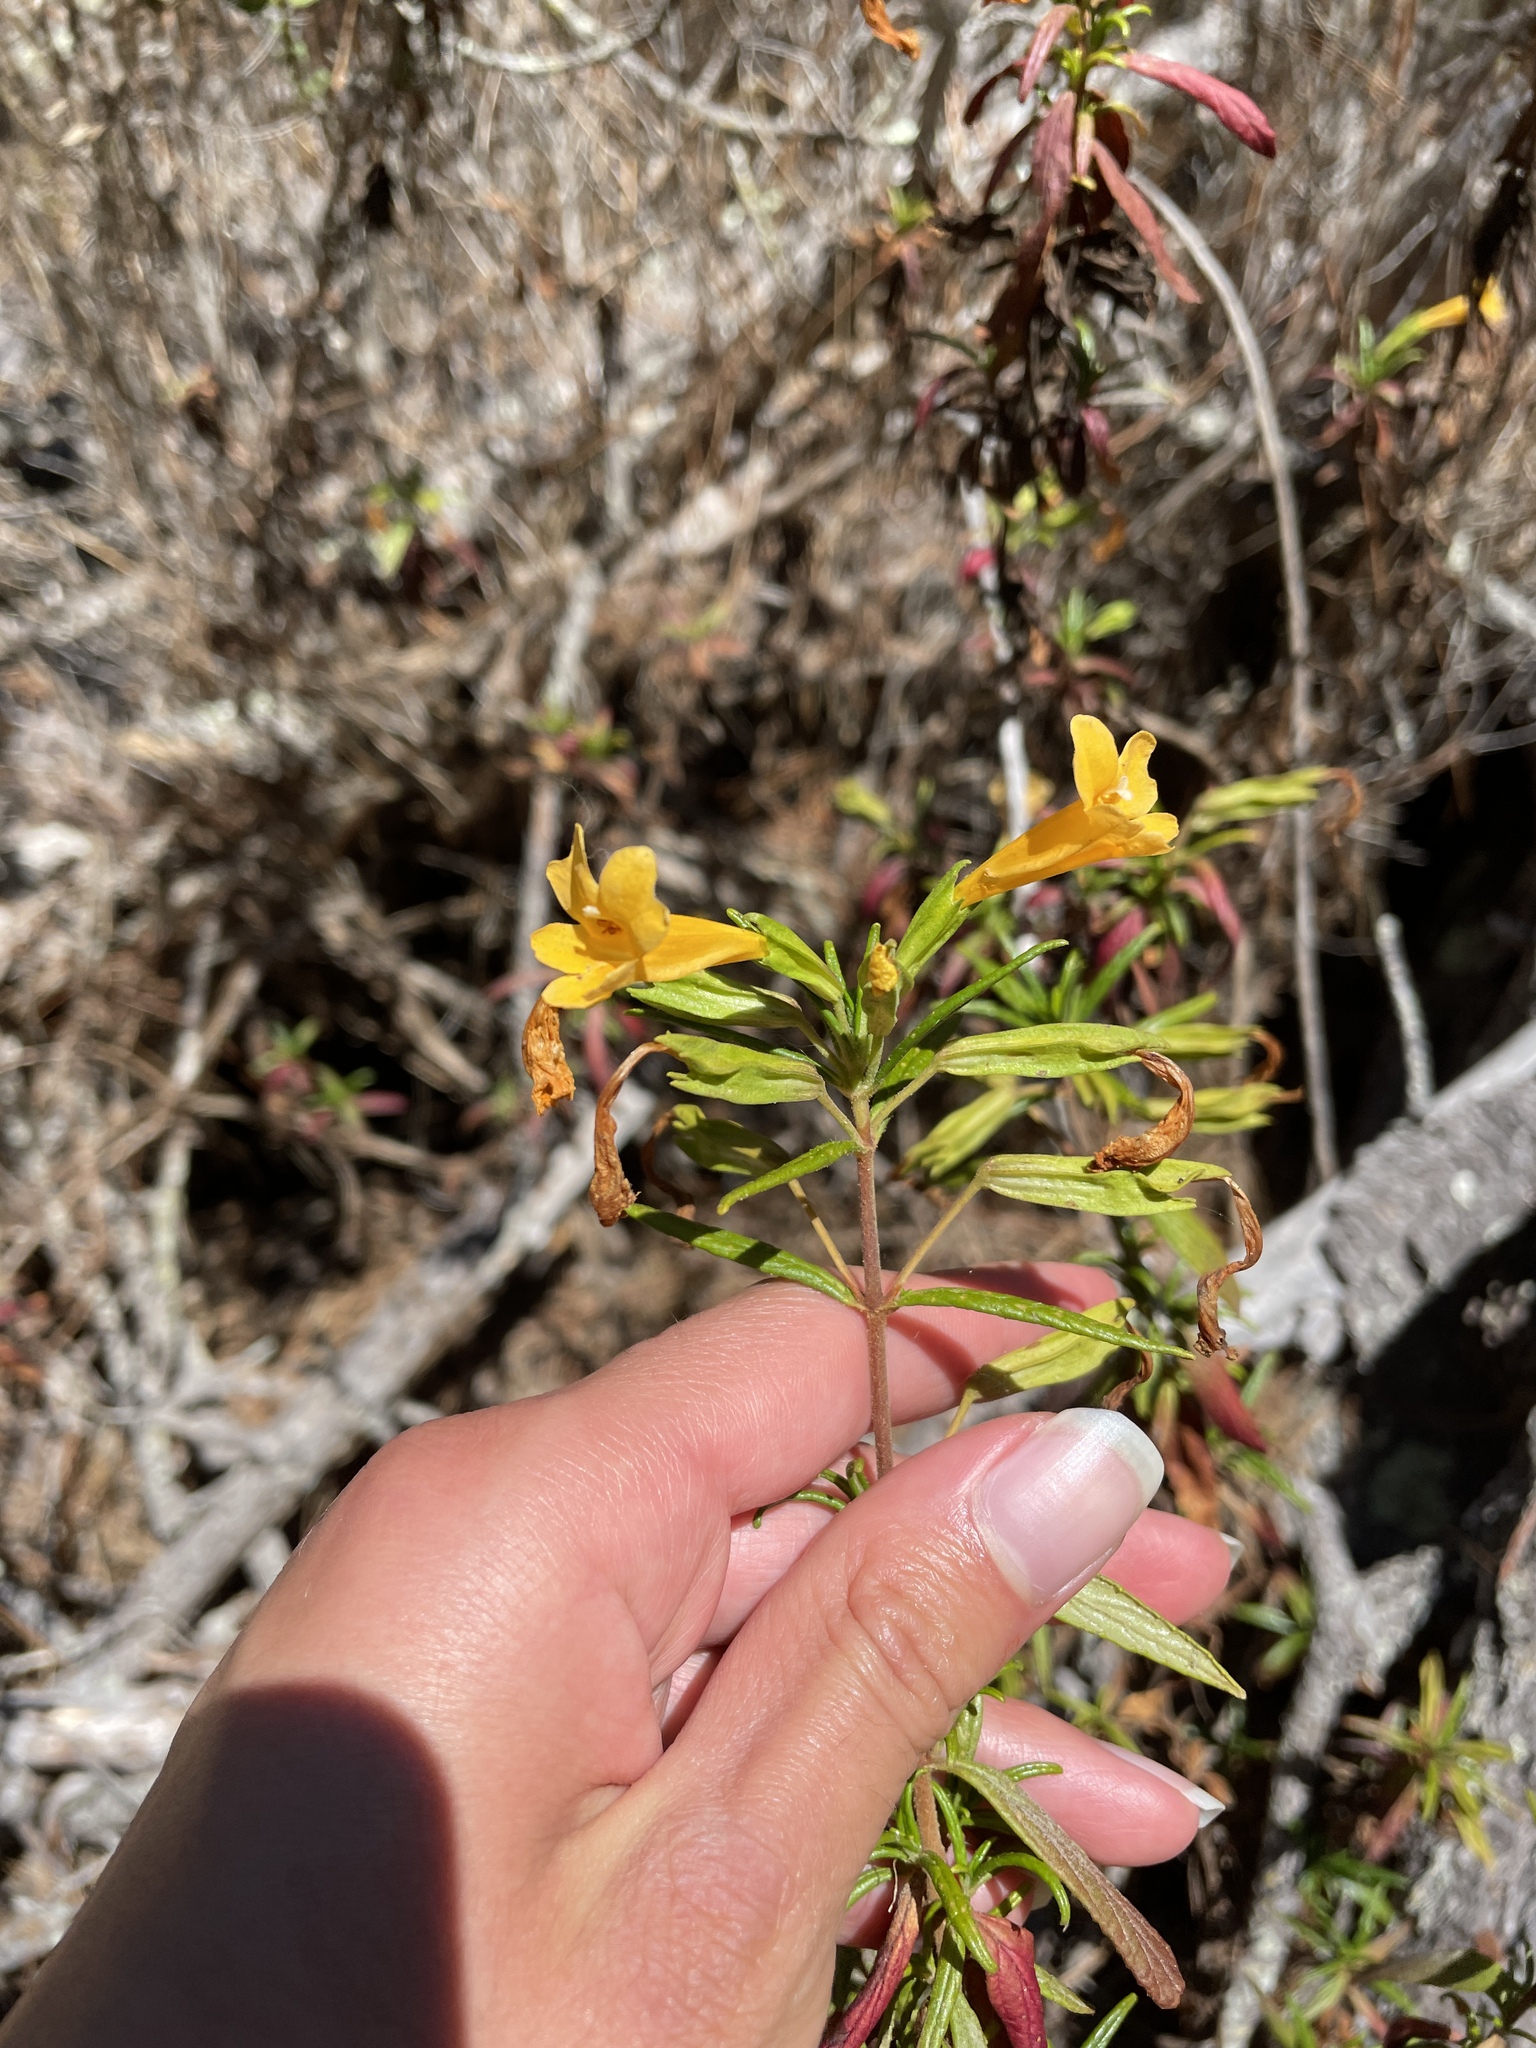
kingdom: Plantae
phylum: Tracheophyta
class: Magnoliopsida
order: Lamiales
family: Phrymaceae
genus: Diplacus
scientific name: Diplacus aurantiacus
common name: Bush monkey-flower
